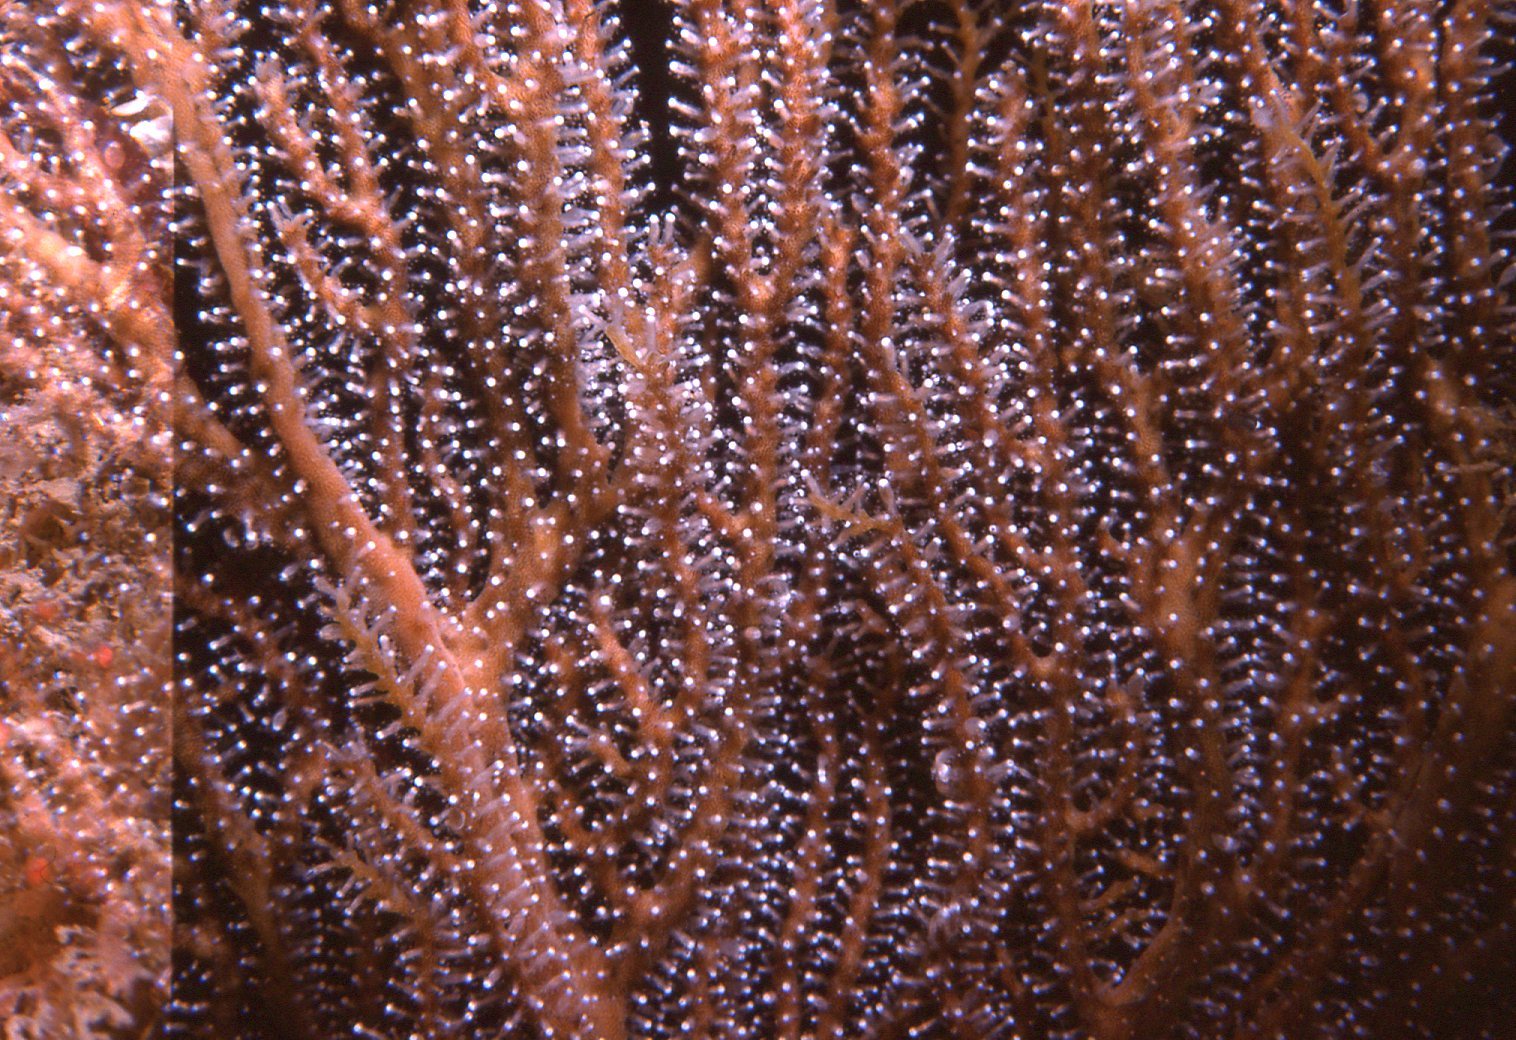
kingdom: Animalia
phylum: Cnidaria
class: Hydrozoa
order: Anthoathecata
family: Solanderiidae
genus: Solanderia
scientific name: Solanderia fusca
